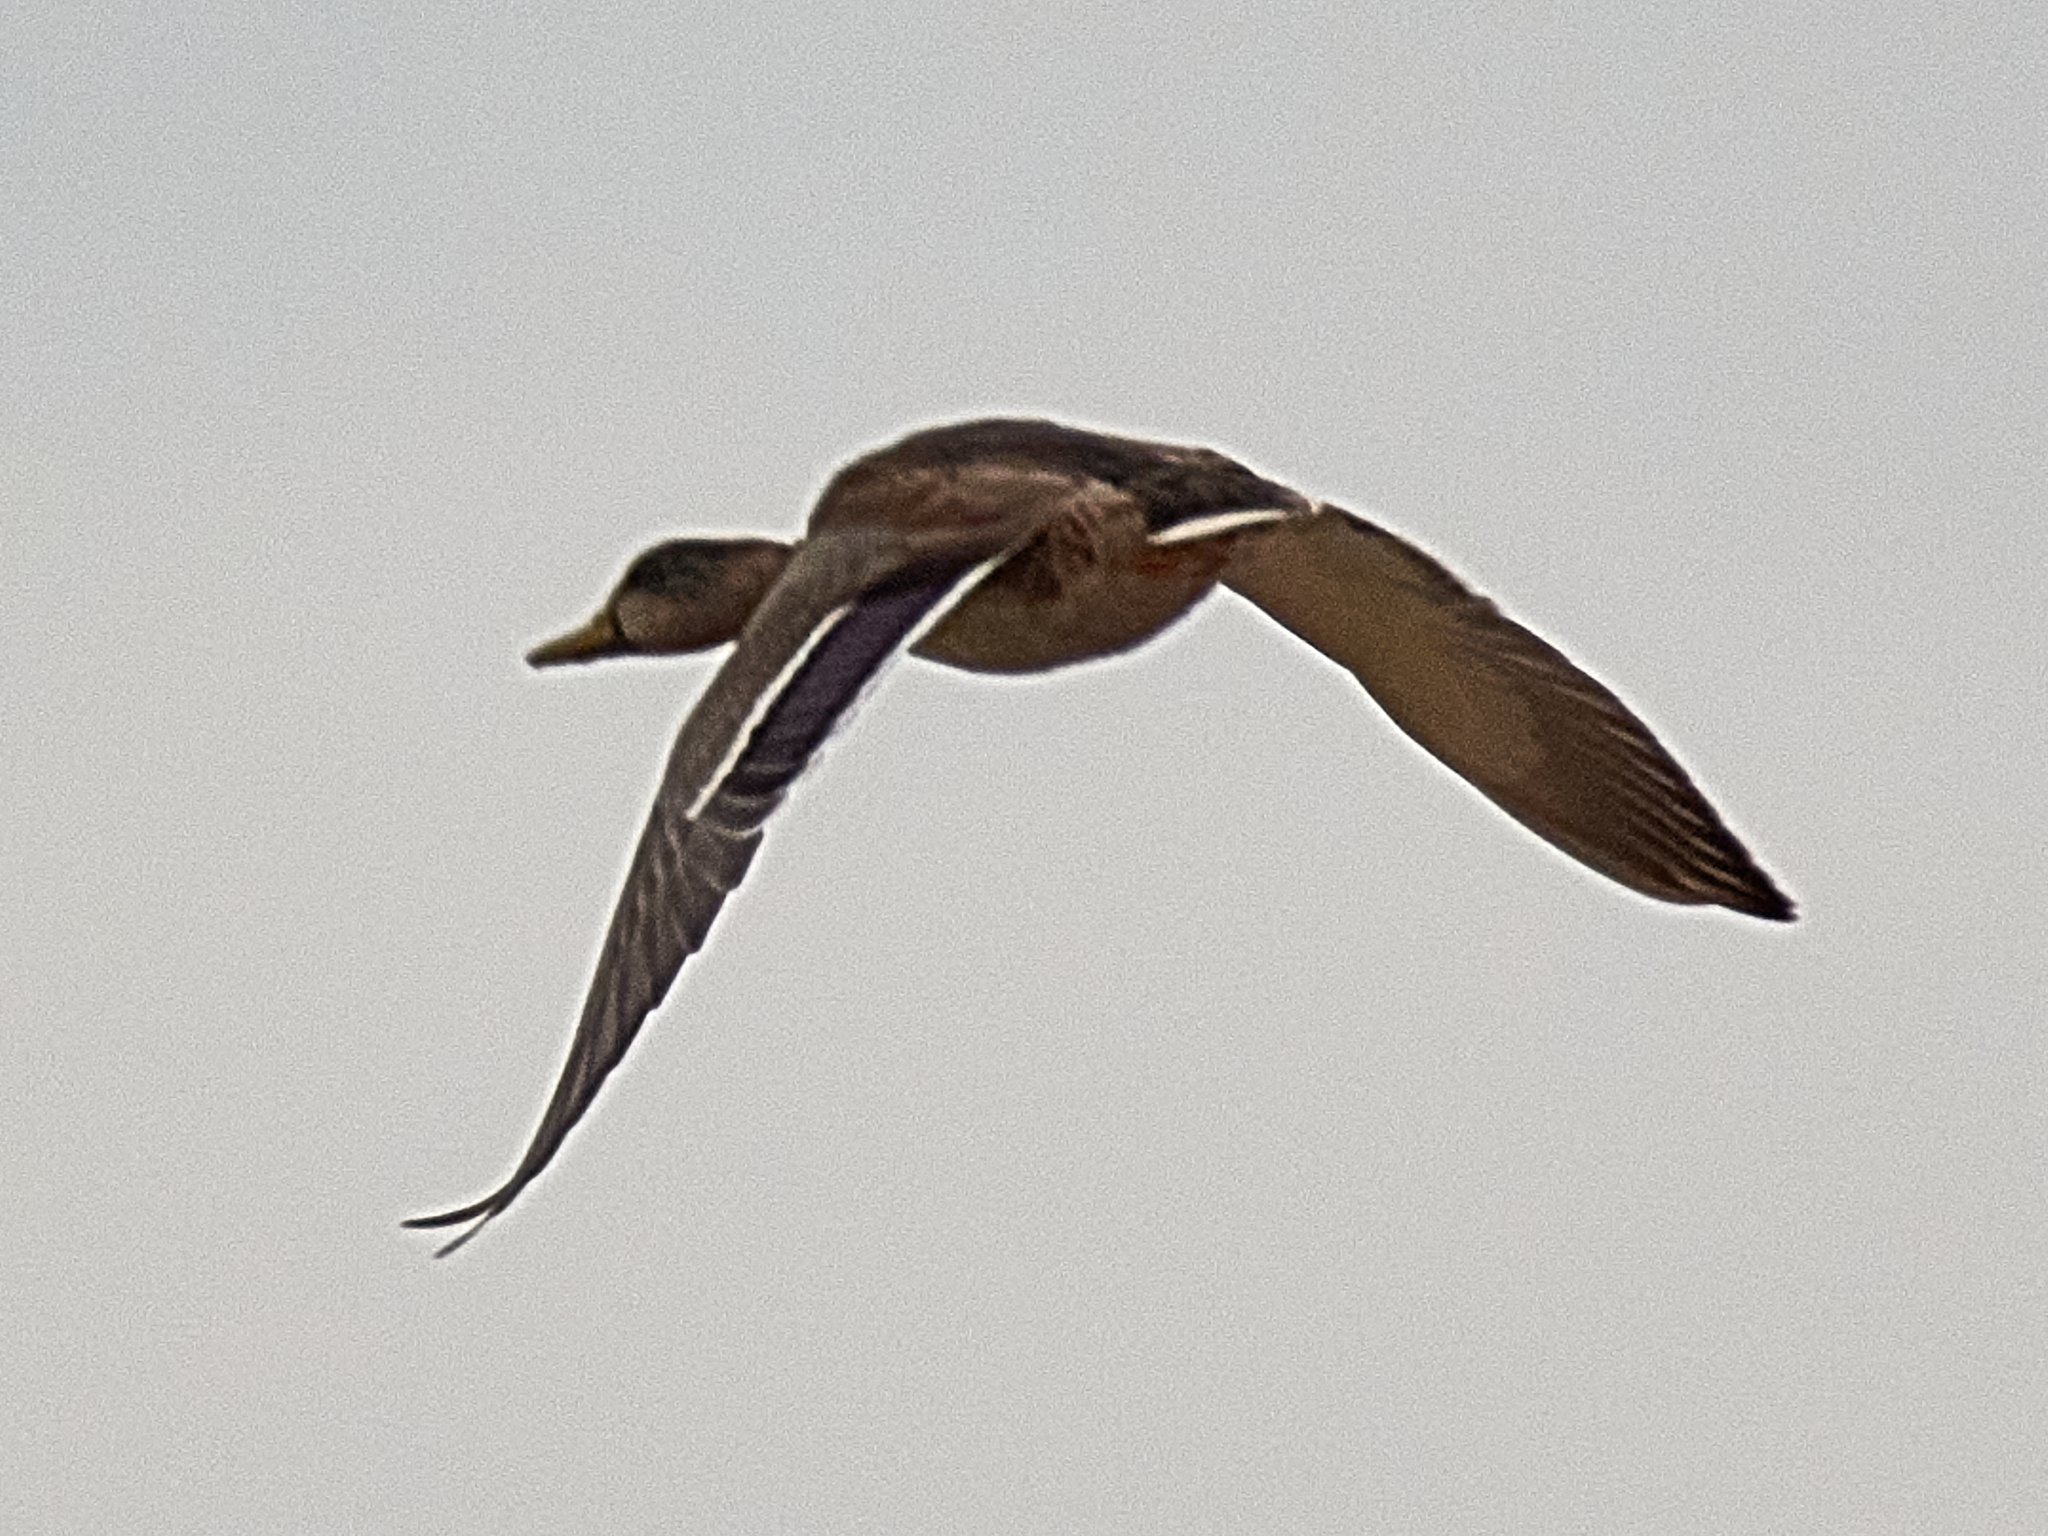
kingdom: Animalia
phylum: Chordata
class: Aves
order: Anseriformes
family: Anatidae
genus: Anas
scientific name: Anas platyrhynchos
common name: Mallard
